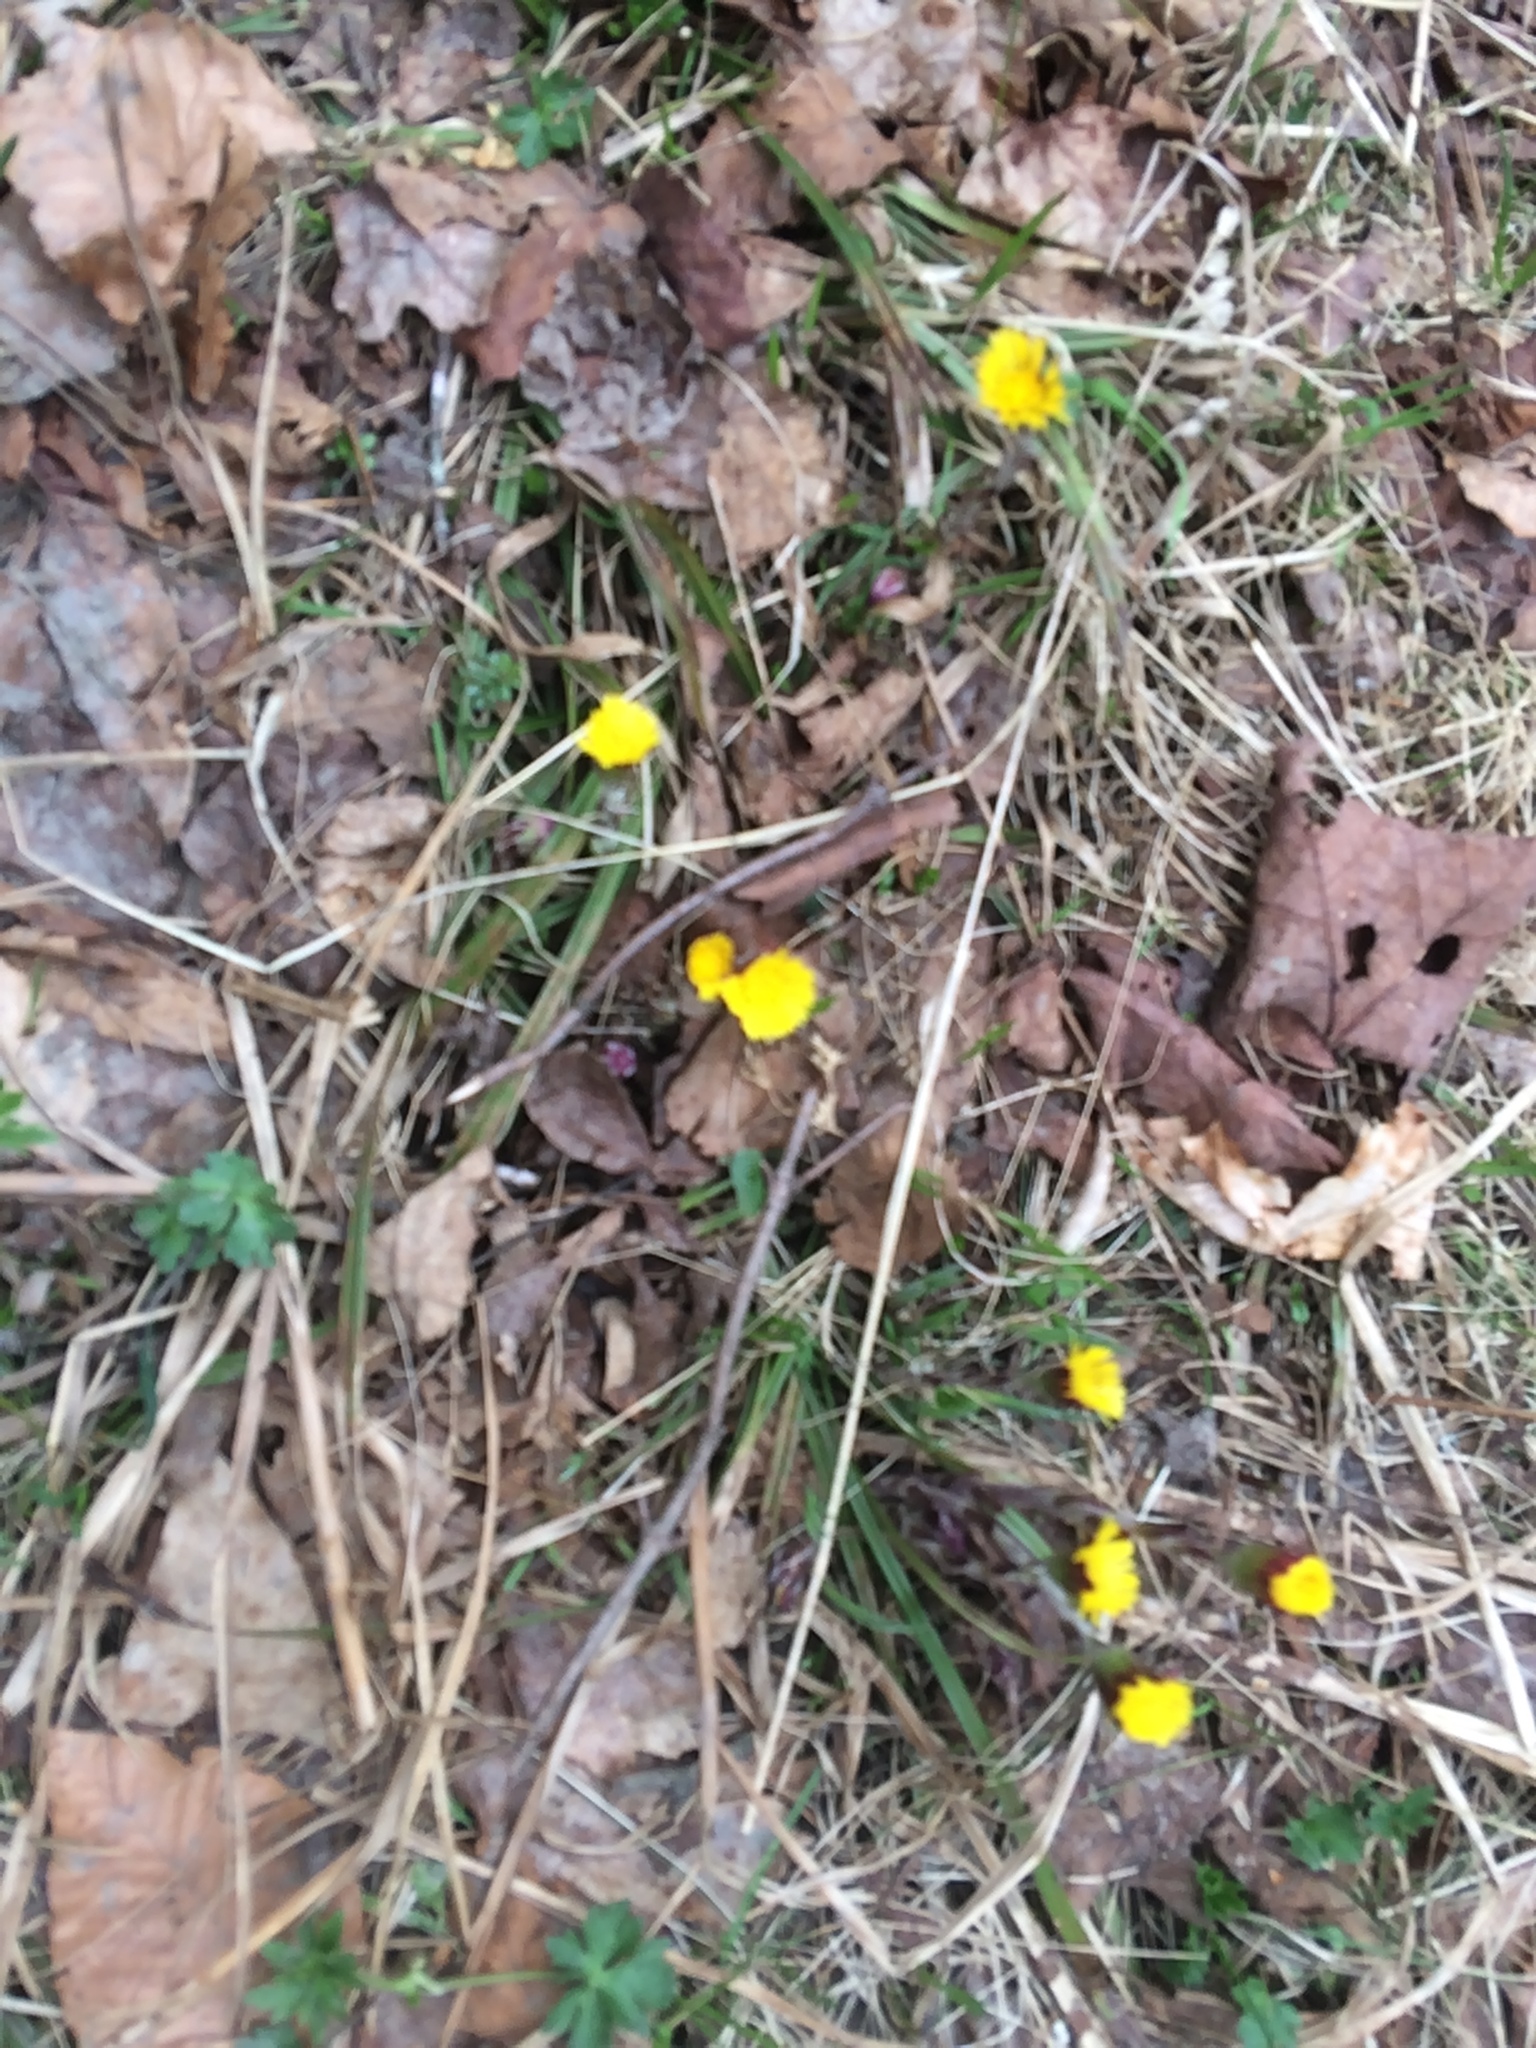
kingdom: Plantae
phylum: Tracheophyta
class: Magnoliopsida
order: Asterales
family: Asteraceae
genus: Tussilago
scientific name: Tussilago farfara
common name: Coltsfoot
